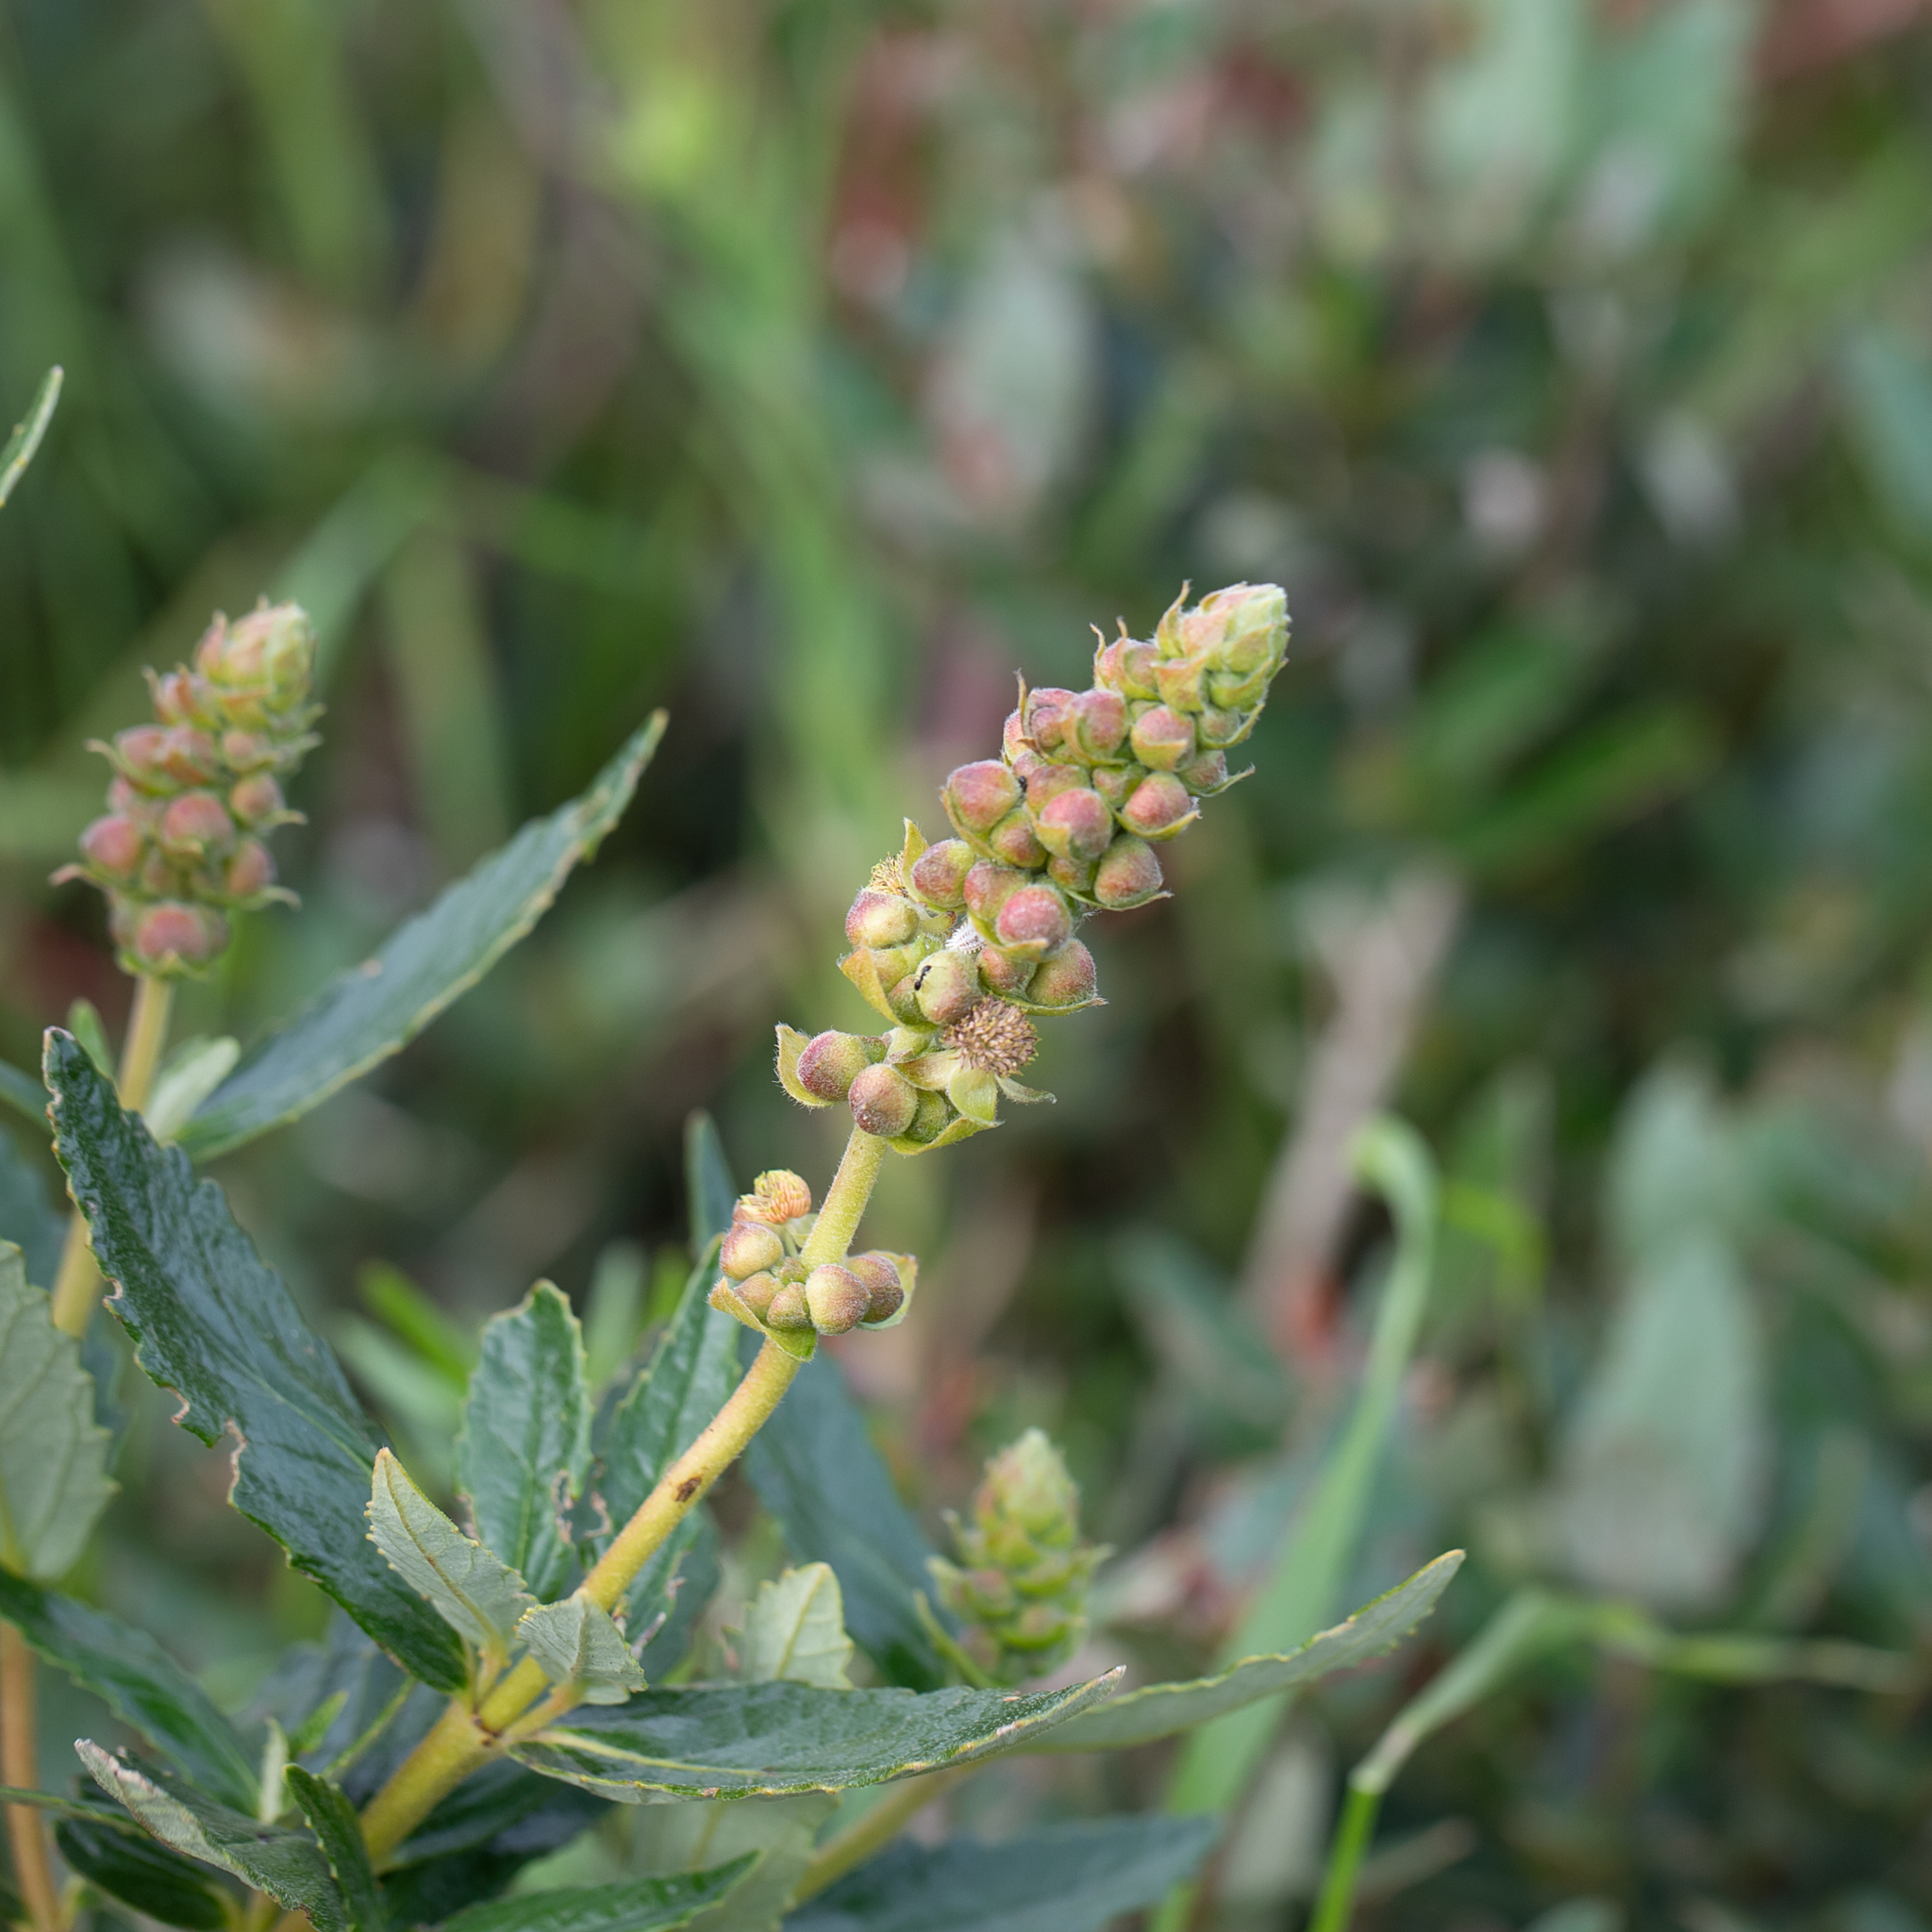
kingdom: Plantae
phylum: Tracheophyta
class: Magnoliopsida
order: Malpighiales
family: Euphorbiaceae
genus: Adriana
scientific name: Adriana quadripartita
